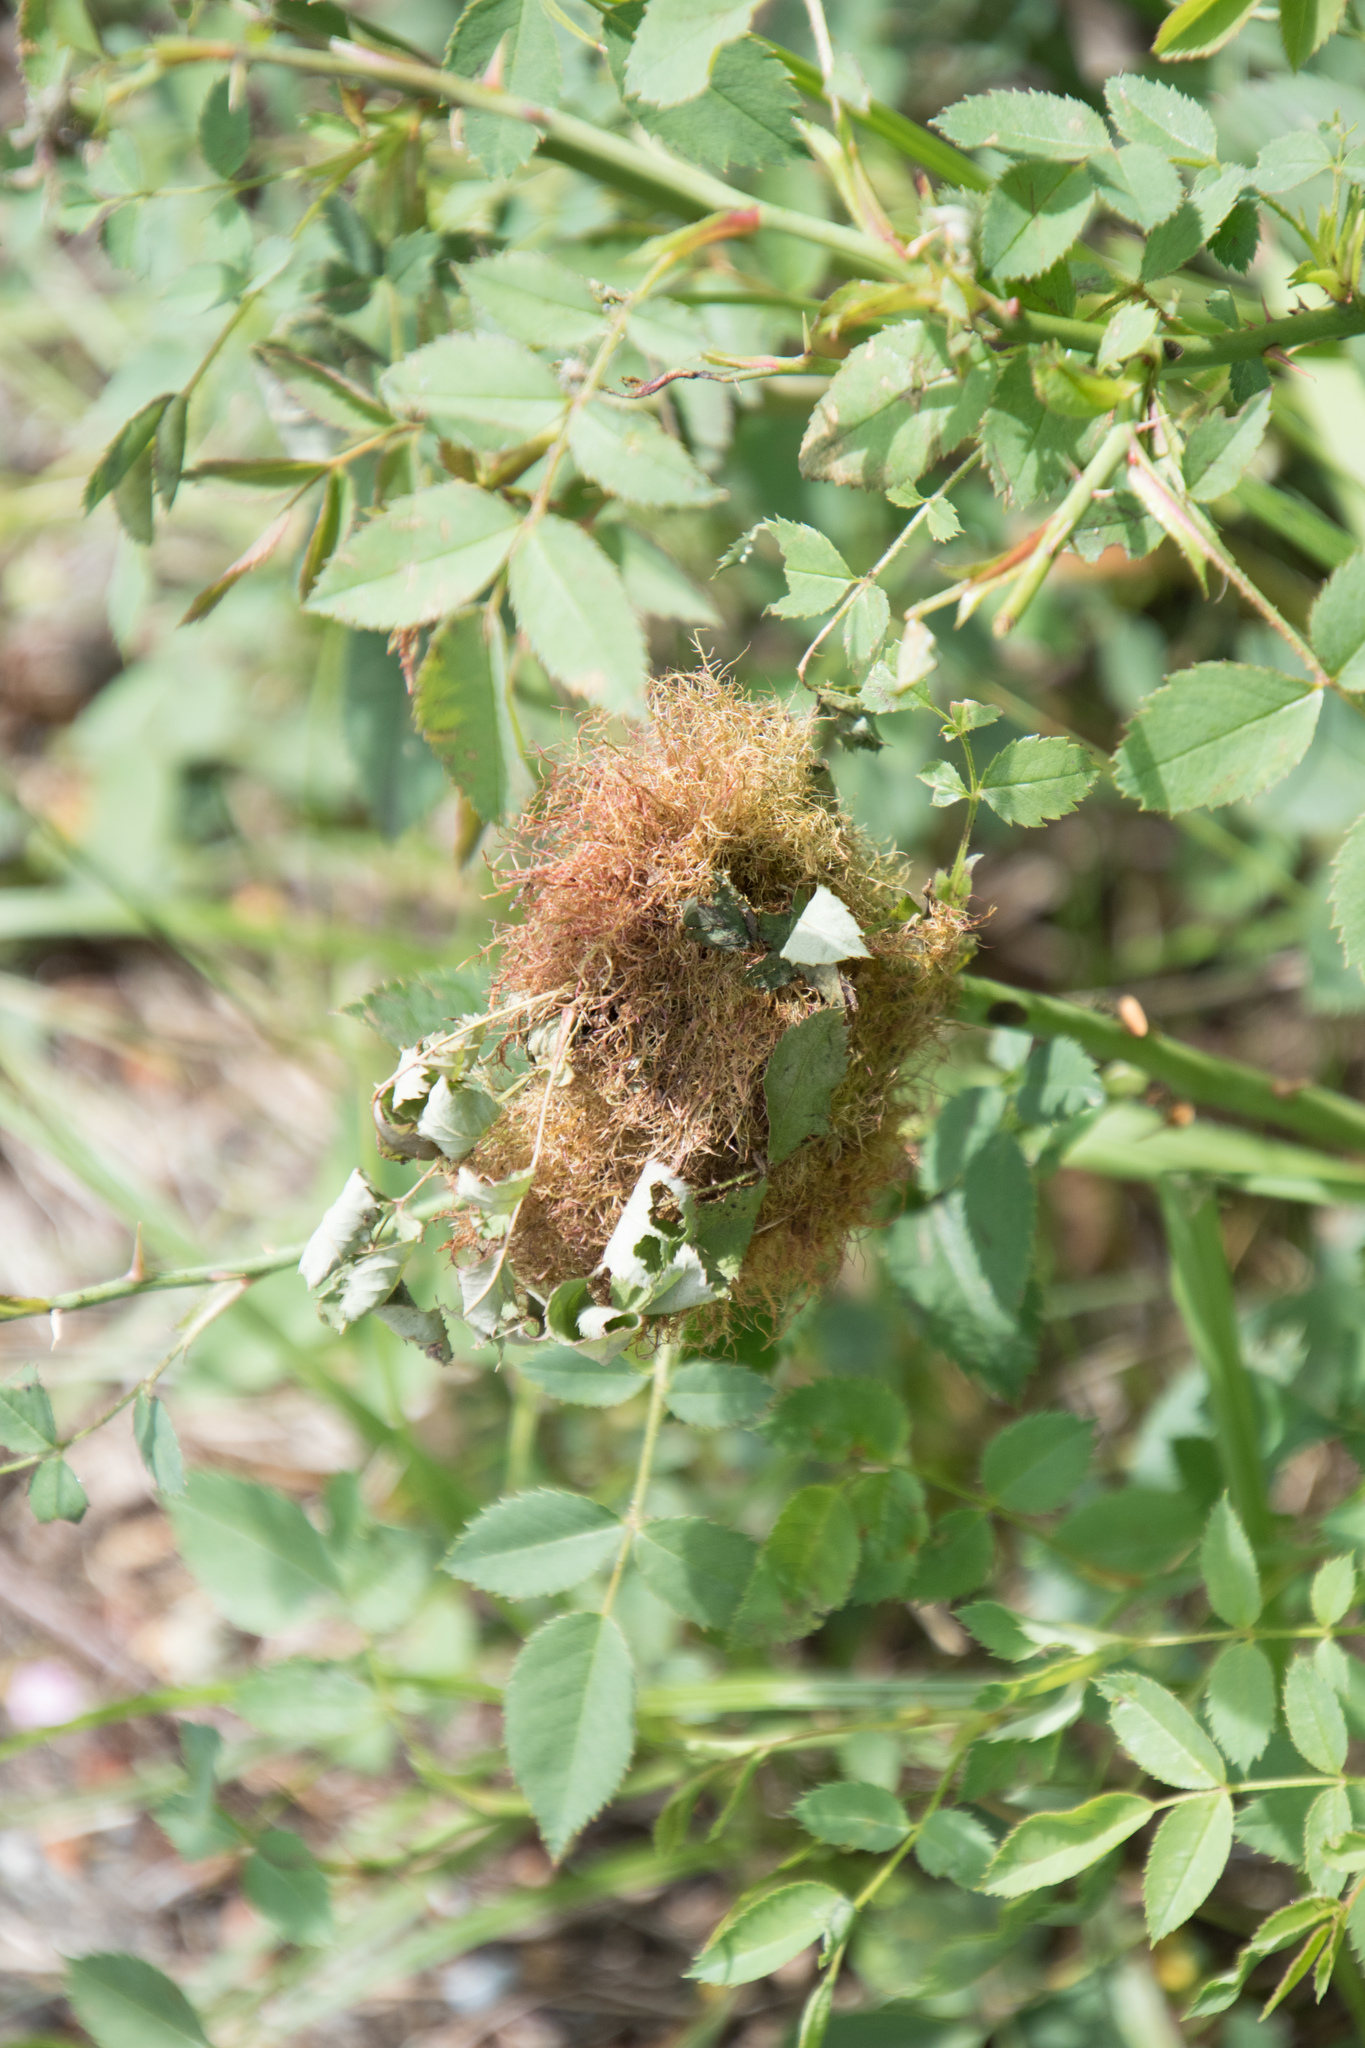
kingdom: Animalia
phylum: Arthropoda
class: Insecta
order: Hymenoptera
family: Cynipidae
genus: Diplolepis
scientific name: Diplolepis rosae
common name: Bedeguar gall
